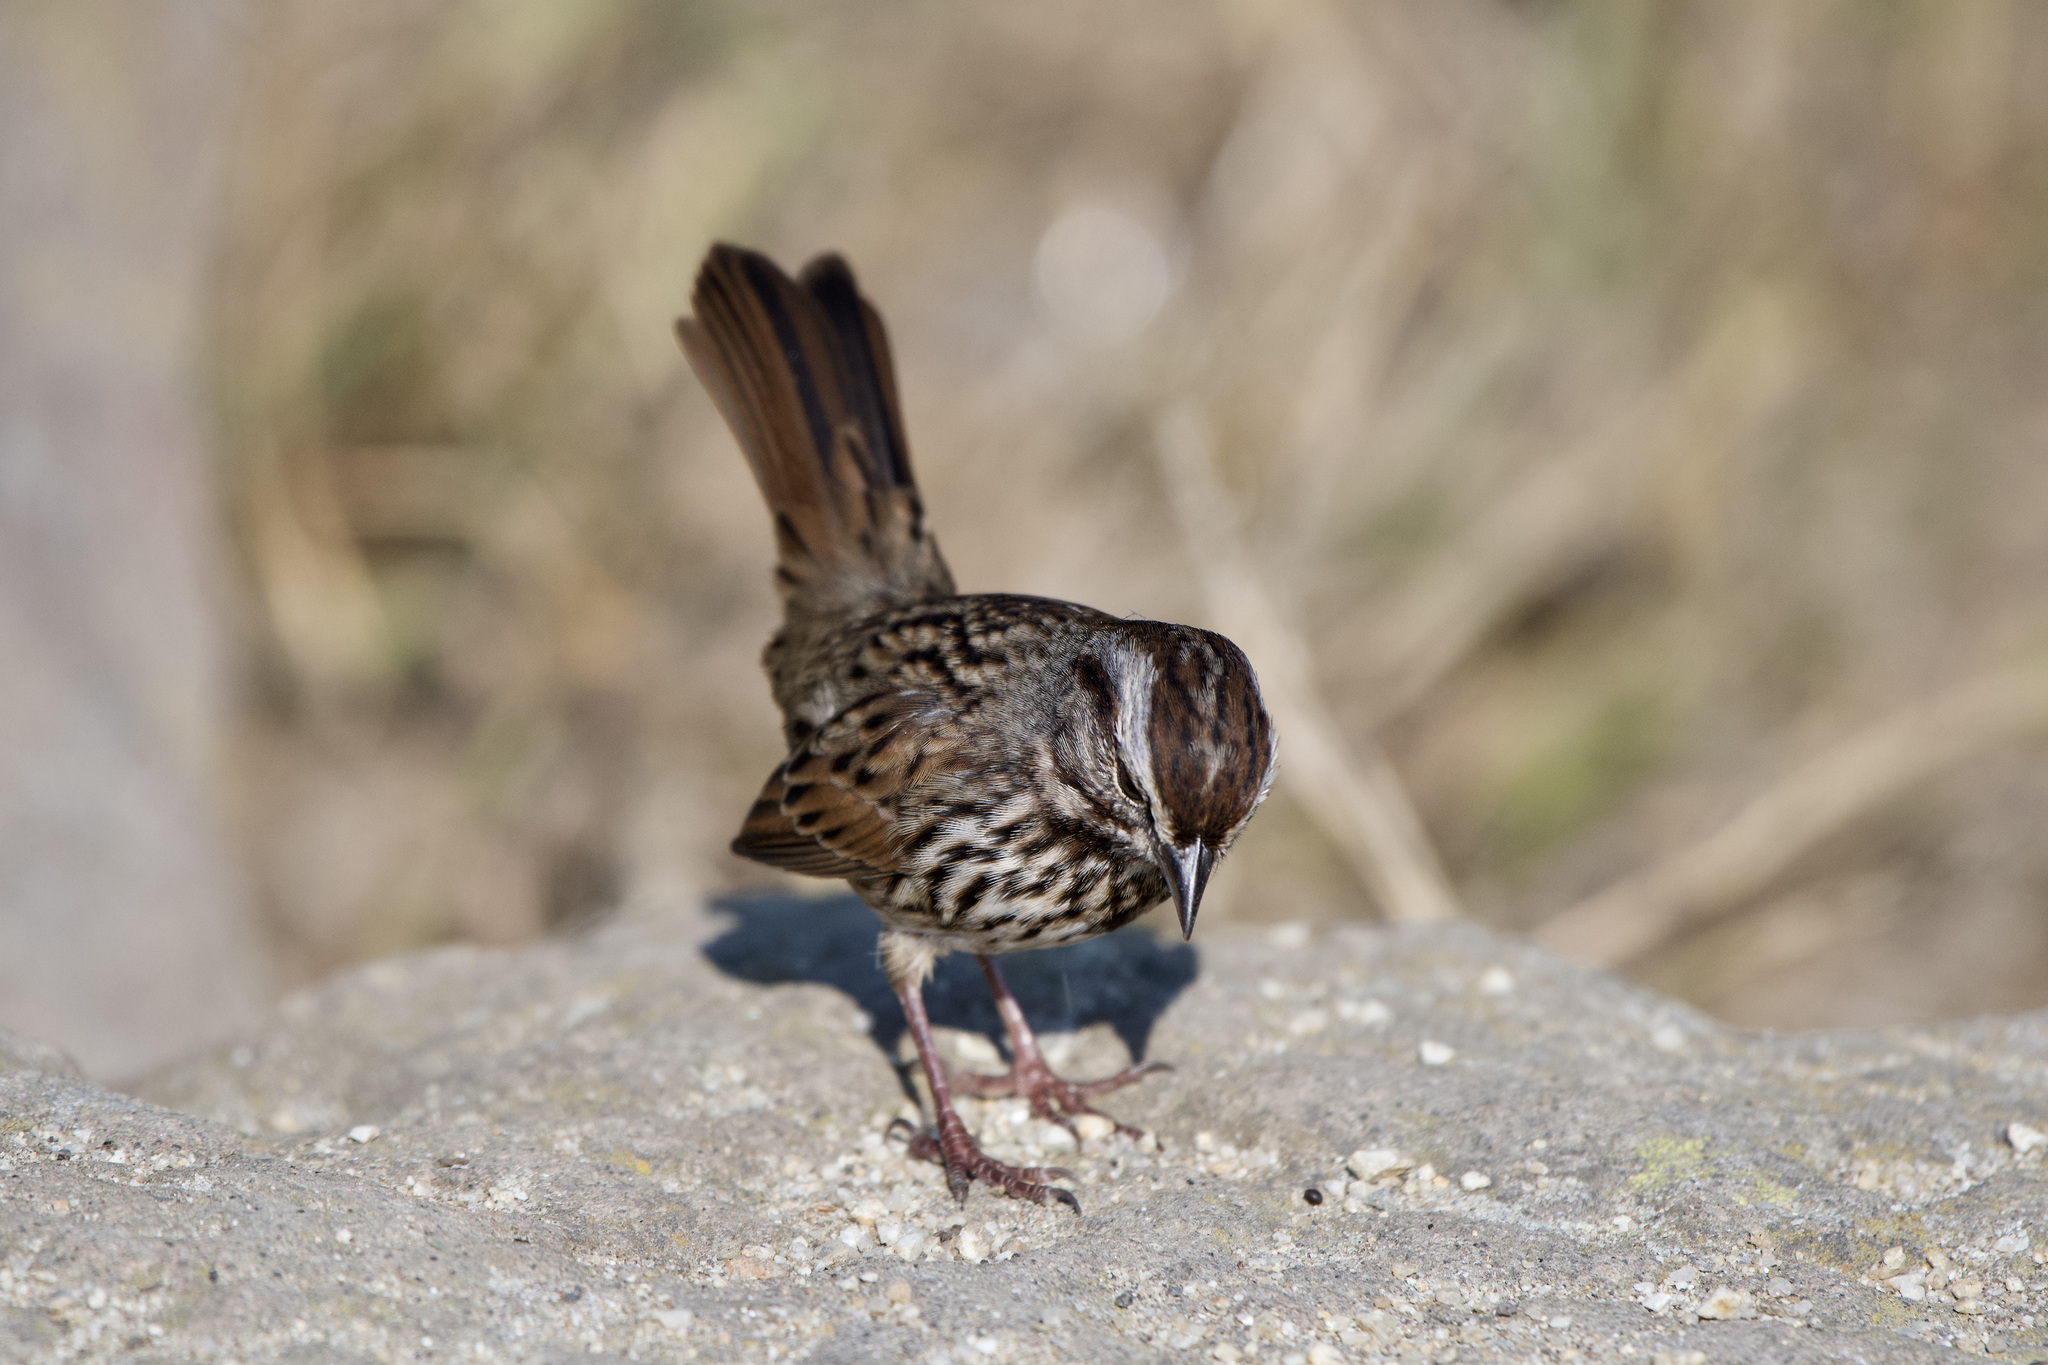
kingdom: Animalia
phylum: Chordata
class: Aves
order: Passeriformes
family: Passerellidae
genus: Melospiza
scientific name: Melospiza melodia
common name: Song sparrow
